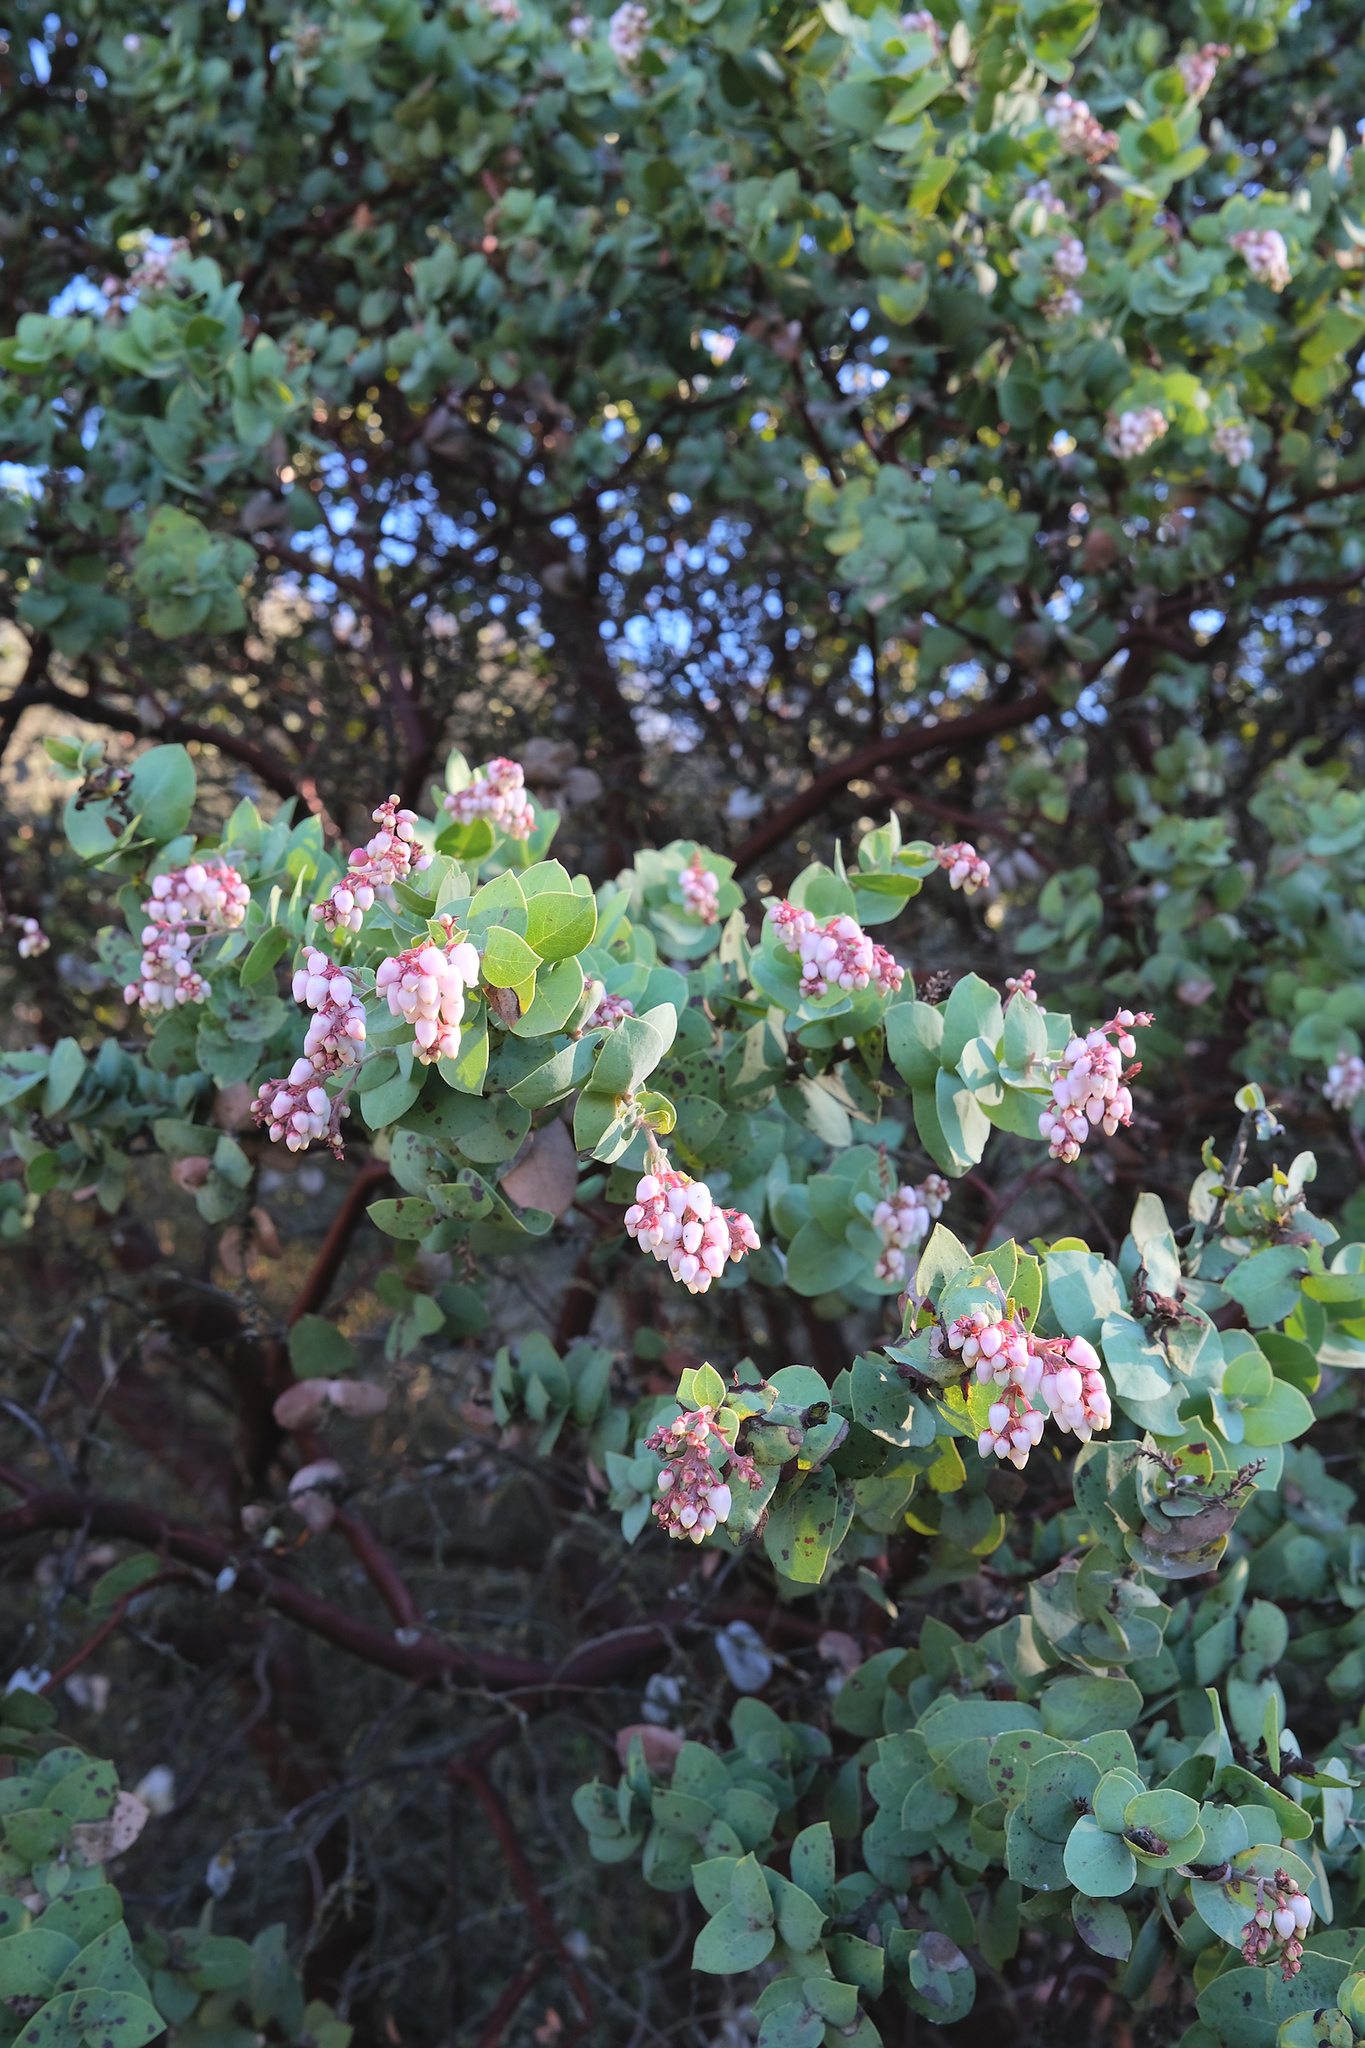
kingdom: Plantae
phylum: Tracheophyta
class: Magnoliopsida
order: Ericales
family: Ericaceae
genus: Arctostaphylos
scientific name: Arctostaphylos gabilanensis
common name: Gabilan manzanita
